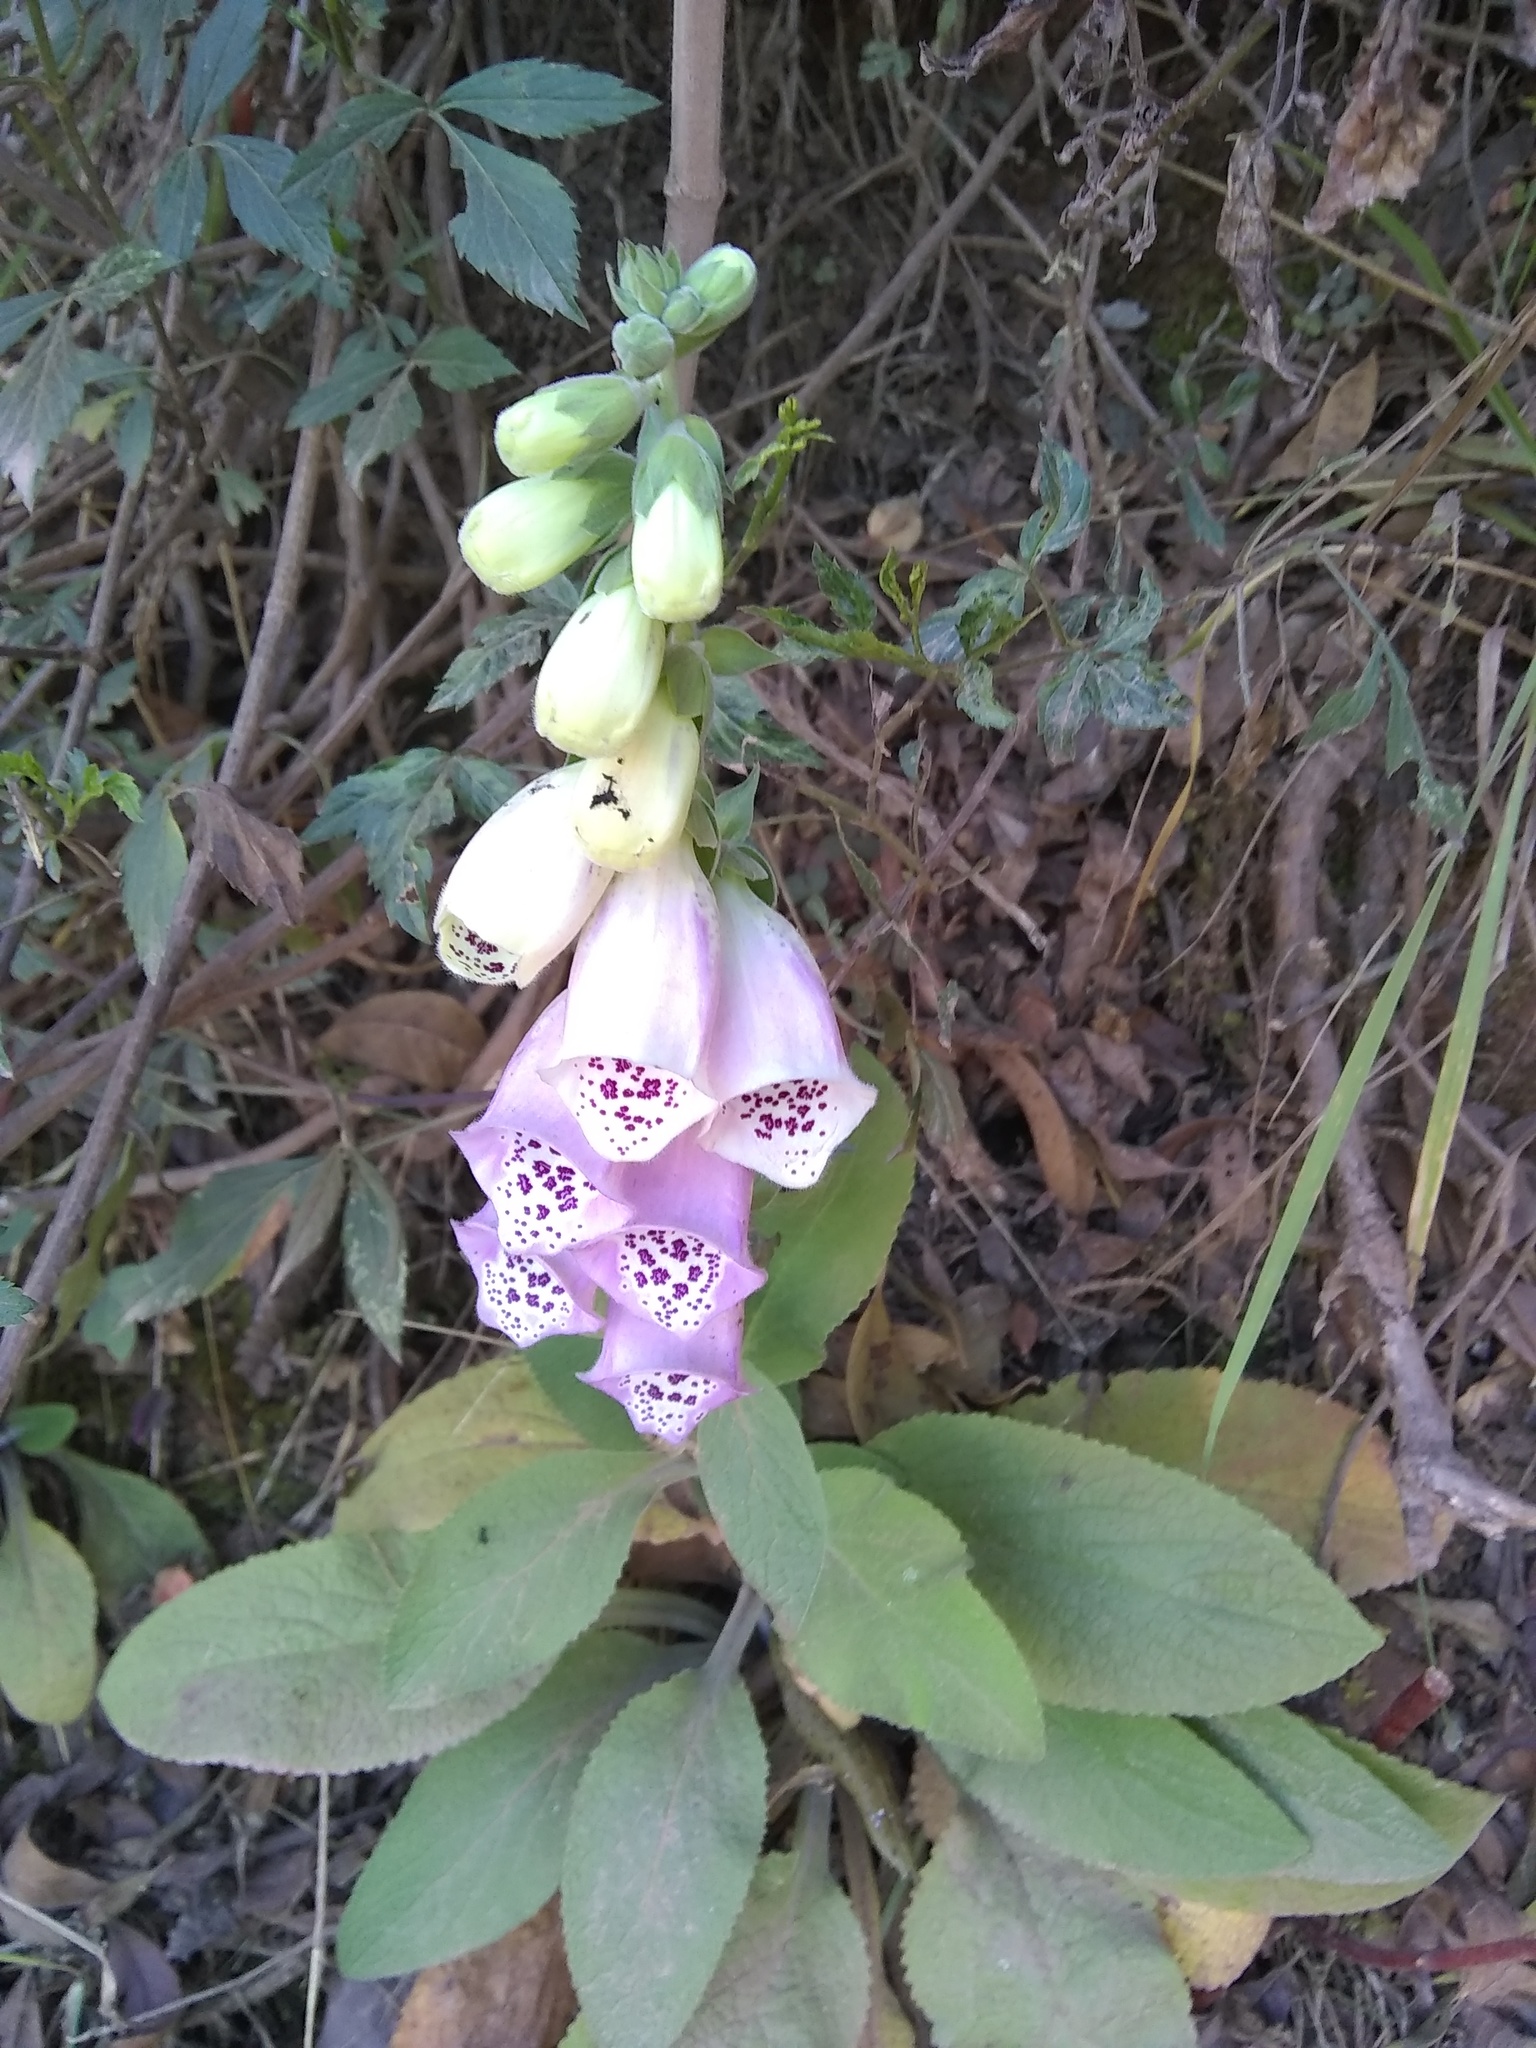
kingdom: Plantae
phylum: Tracheophyta
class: Magnoliopsida
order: Lamiales
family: Plantaginaceae
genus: Digitalis
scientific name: Digitalis purpurea
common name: Foxglove
